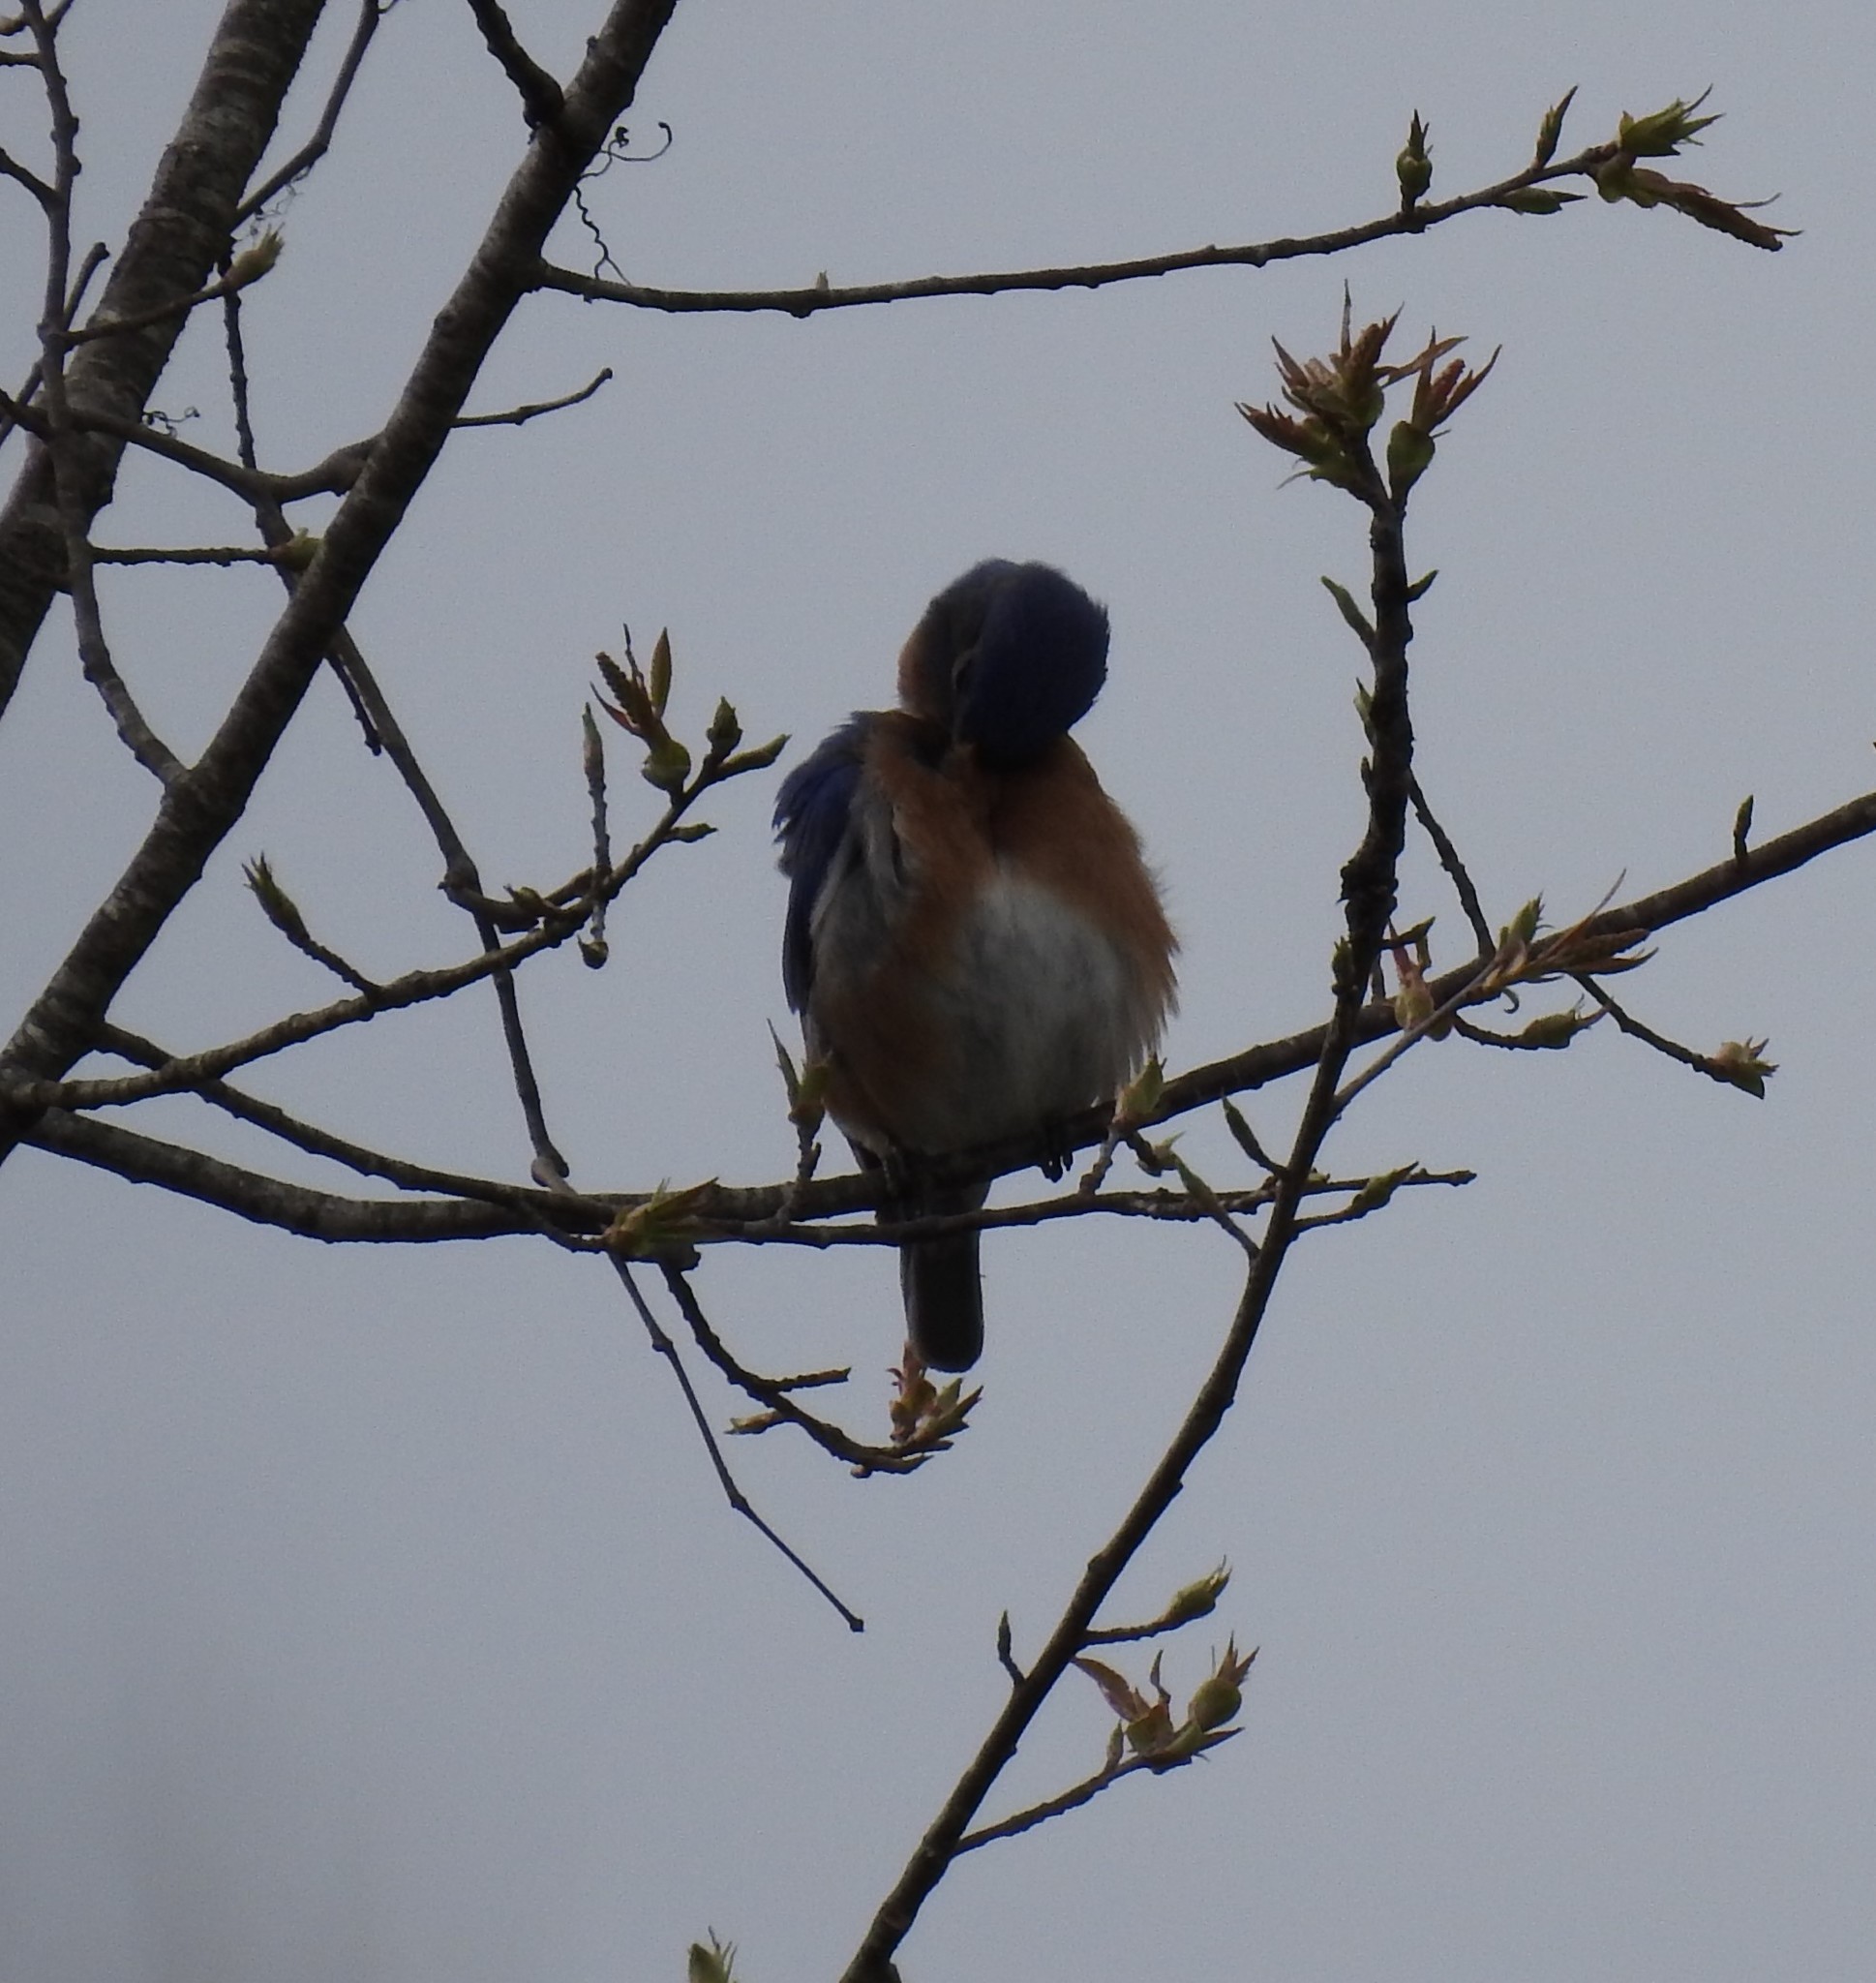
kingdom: Animalia
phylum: Chordata
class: Aves
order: Passeriformes
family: Turdidae
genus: Sialia
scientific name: Sialia sialis
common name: Eastern bluebird
